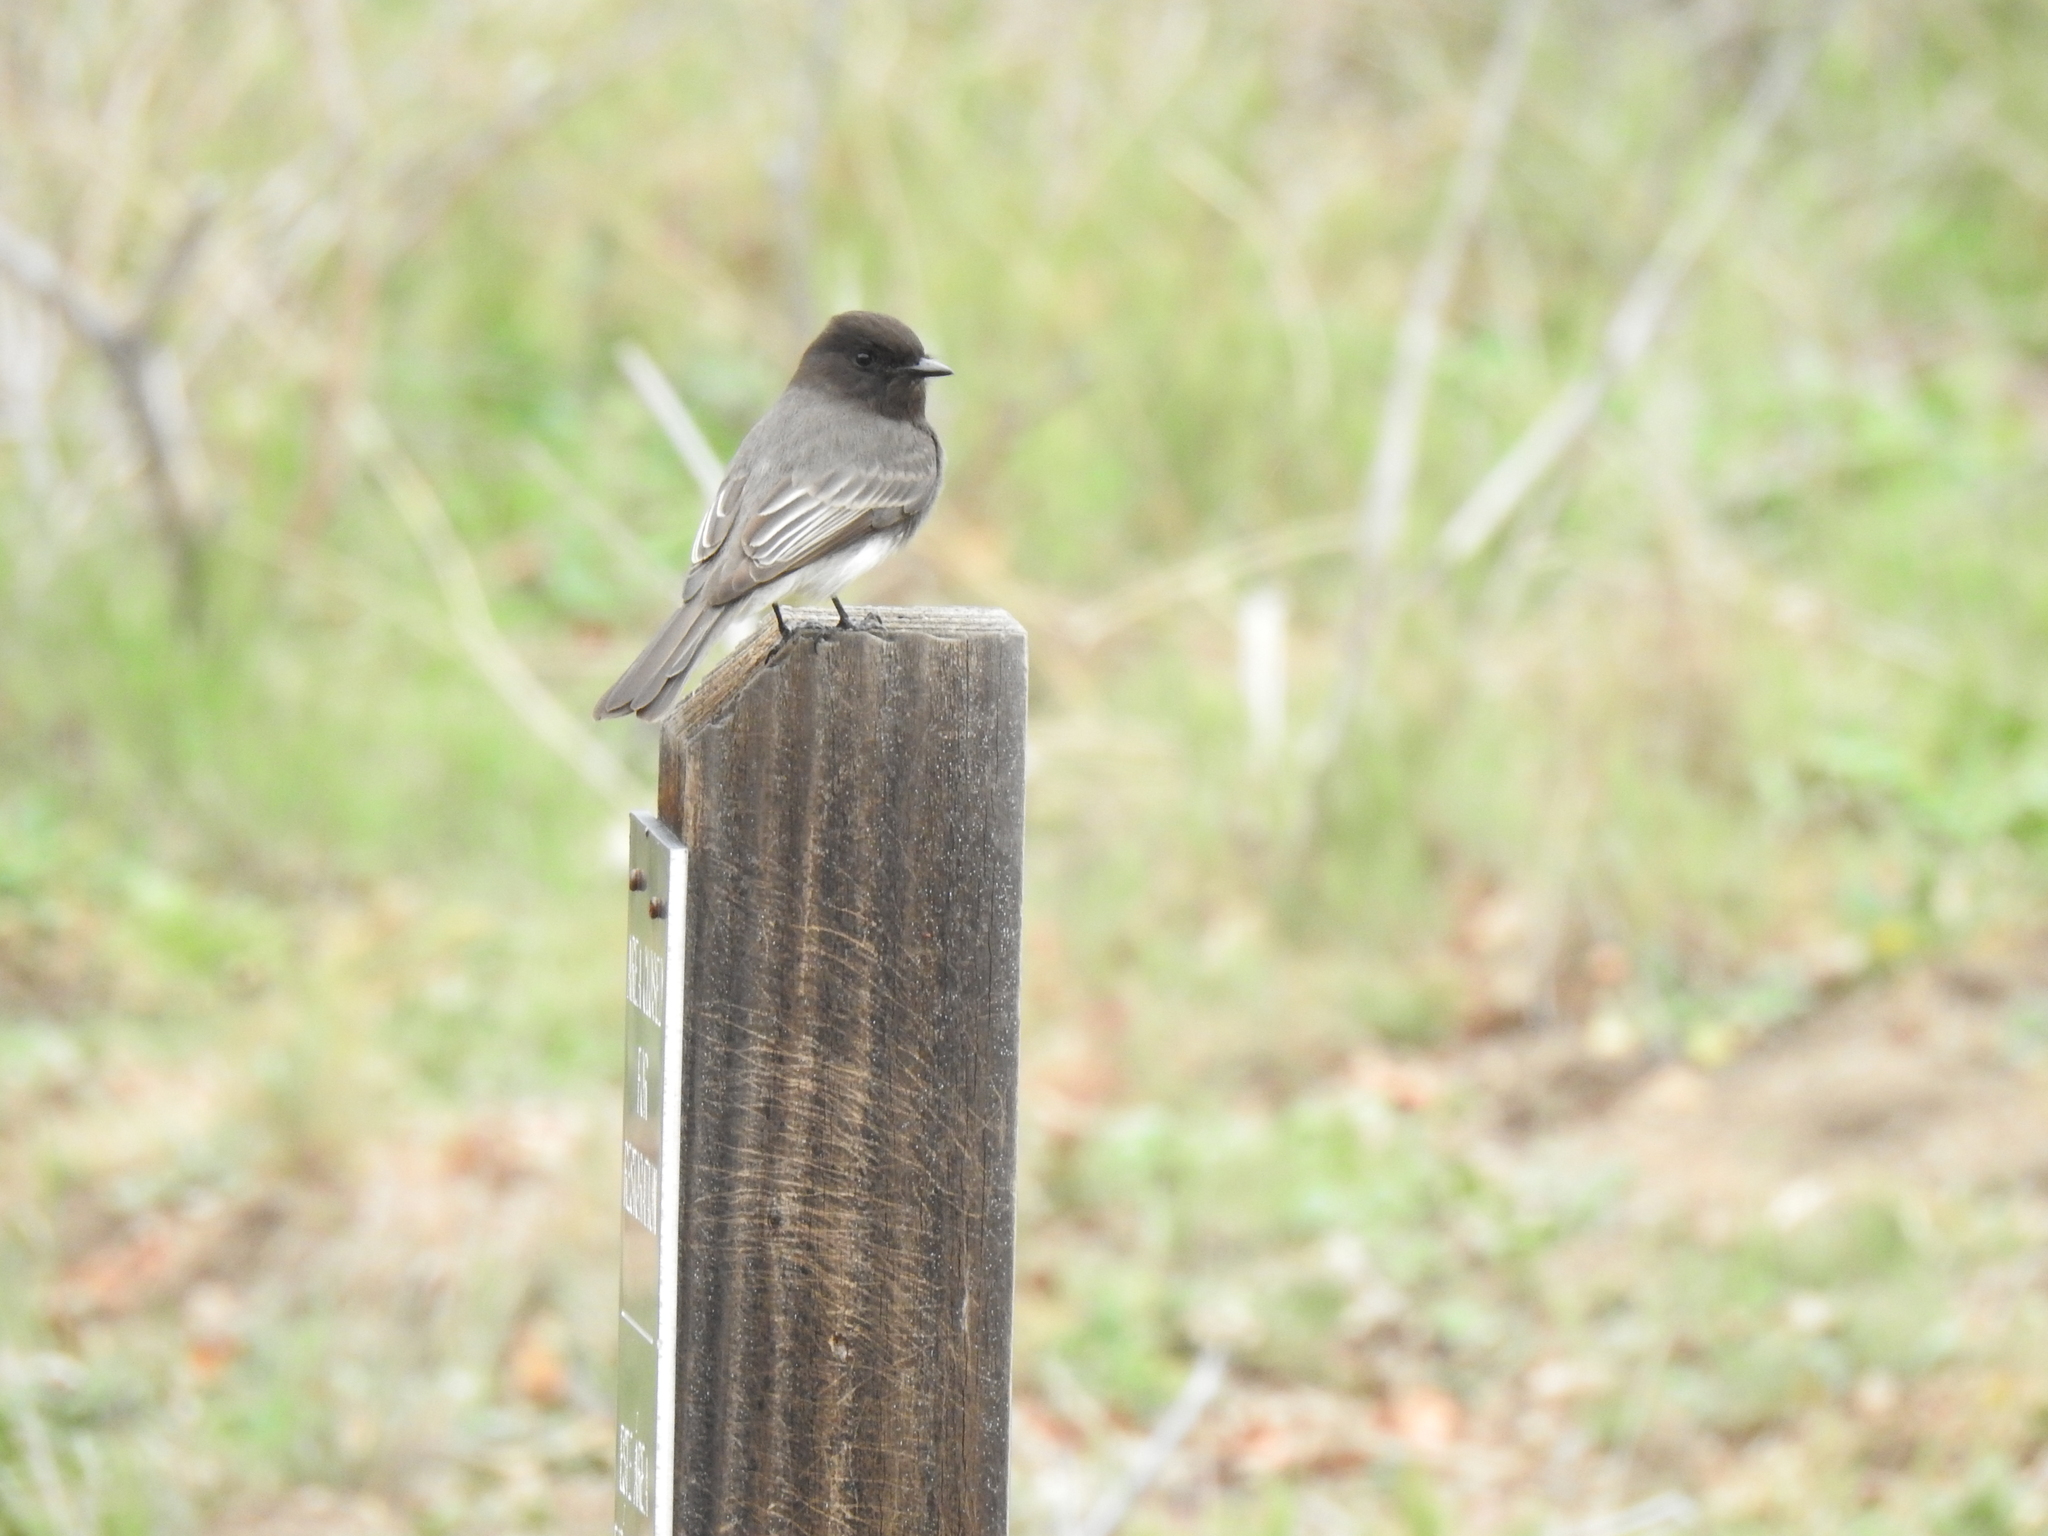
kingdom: Animalia
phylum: Chordata
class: Aves
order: Passeriformes
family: Tyrannidae
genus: Sayornis
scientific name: Sayornis nigricans
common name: Black phoebe
